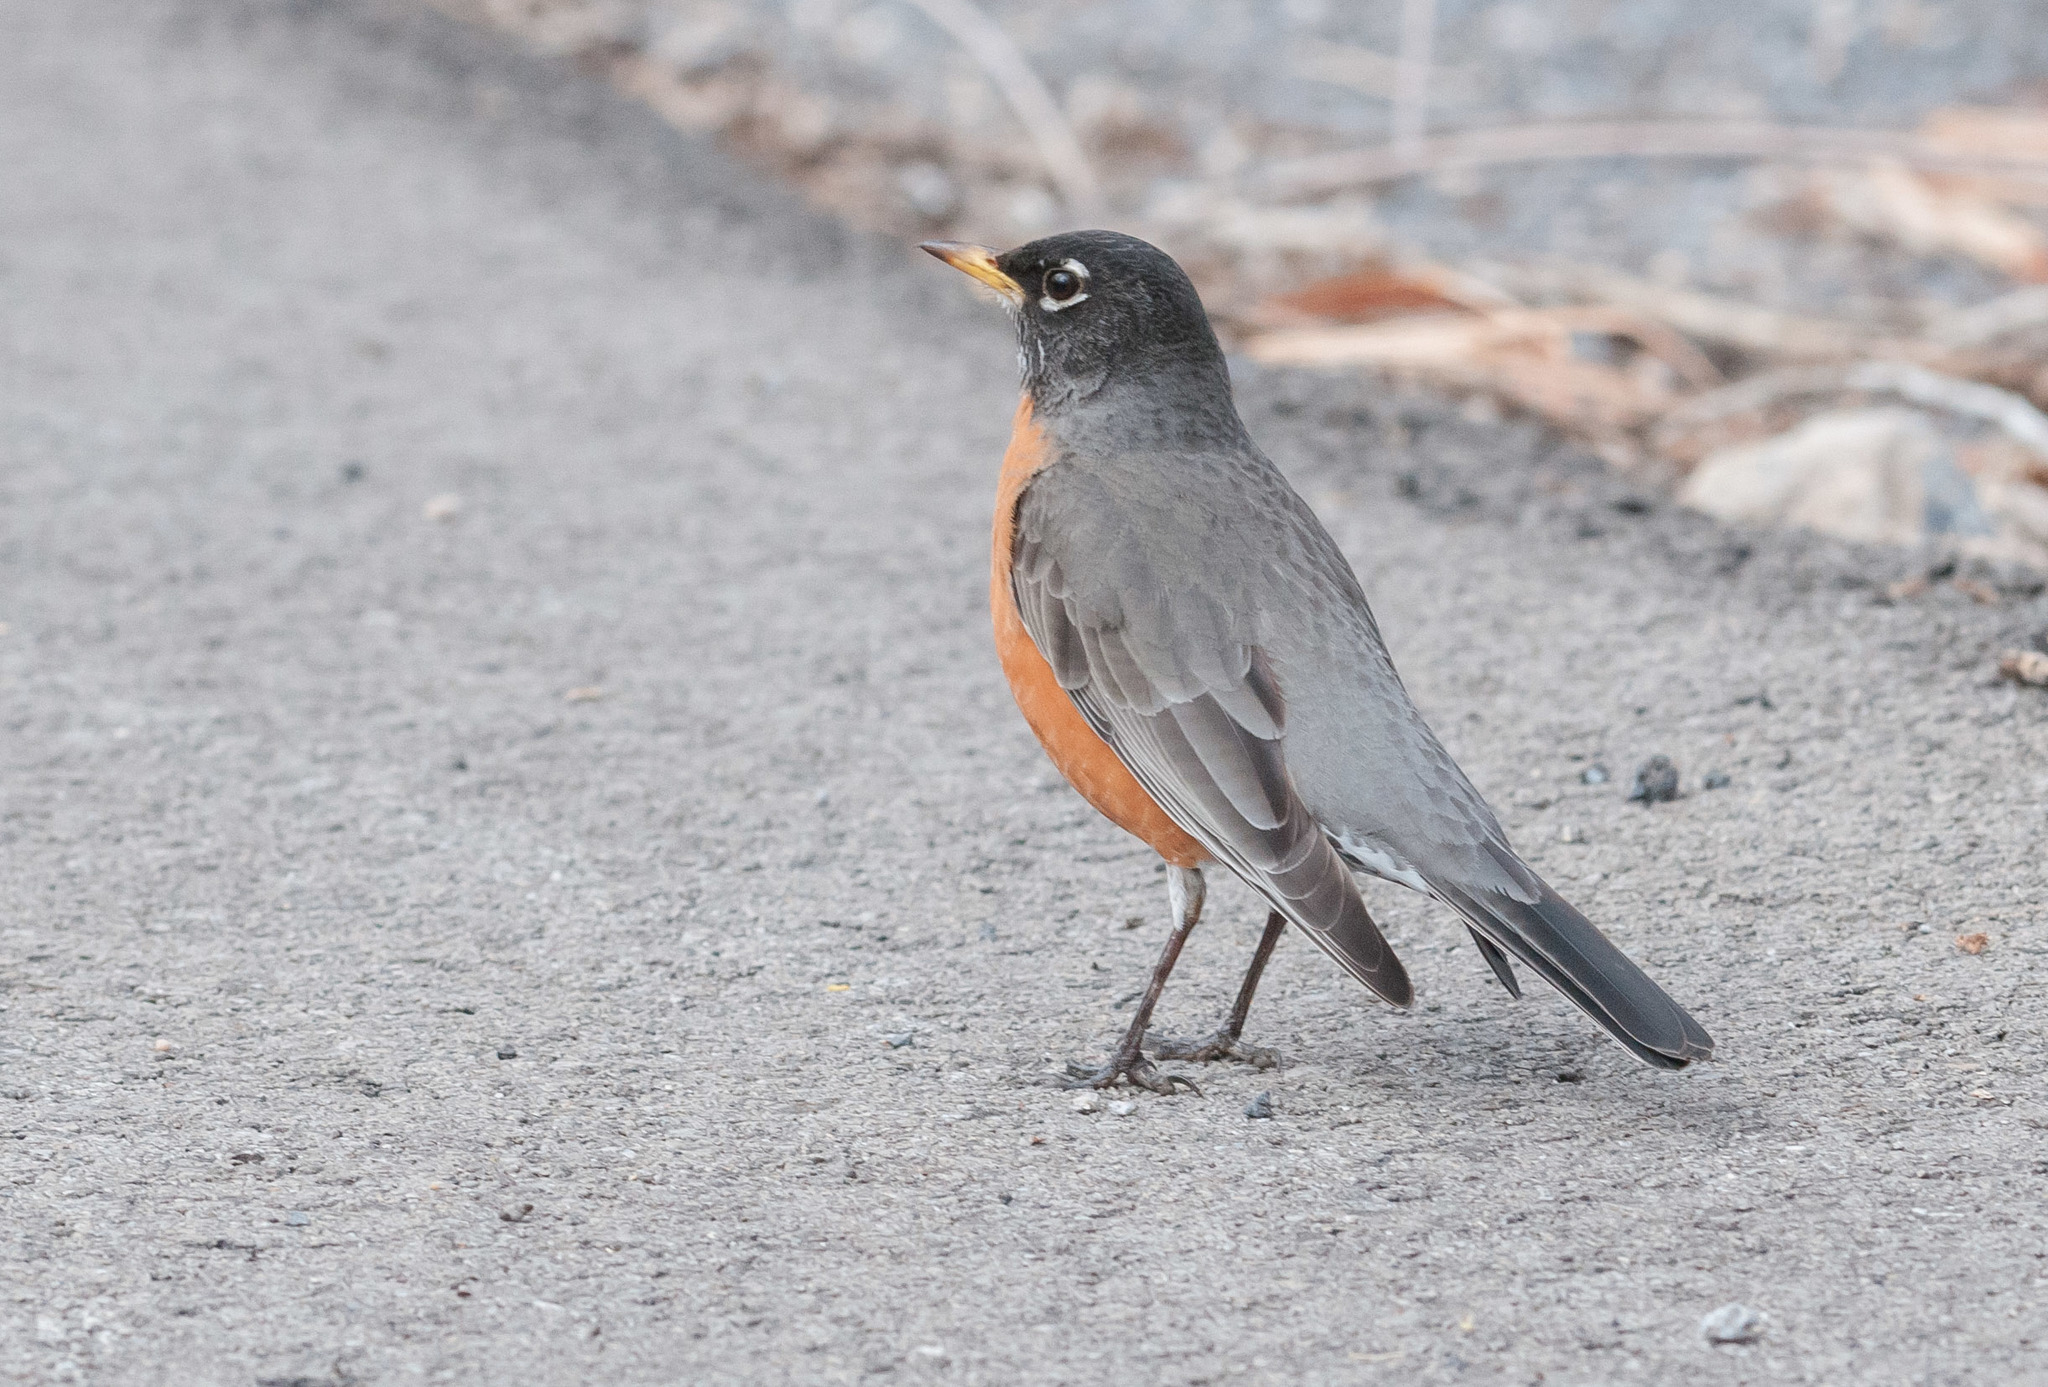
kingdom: Animalia
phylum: Chordata
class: Aves
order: Passeriformes
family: Turdidae
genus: Turdus
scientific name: Turdus migratorius
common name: American robin
